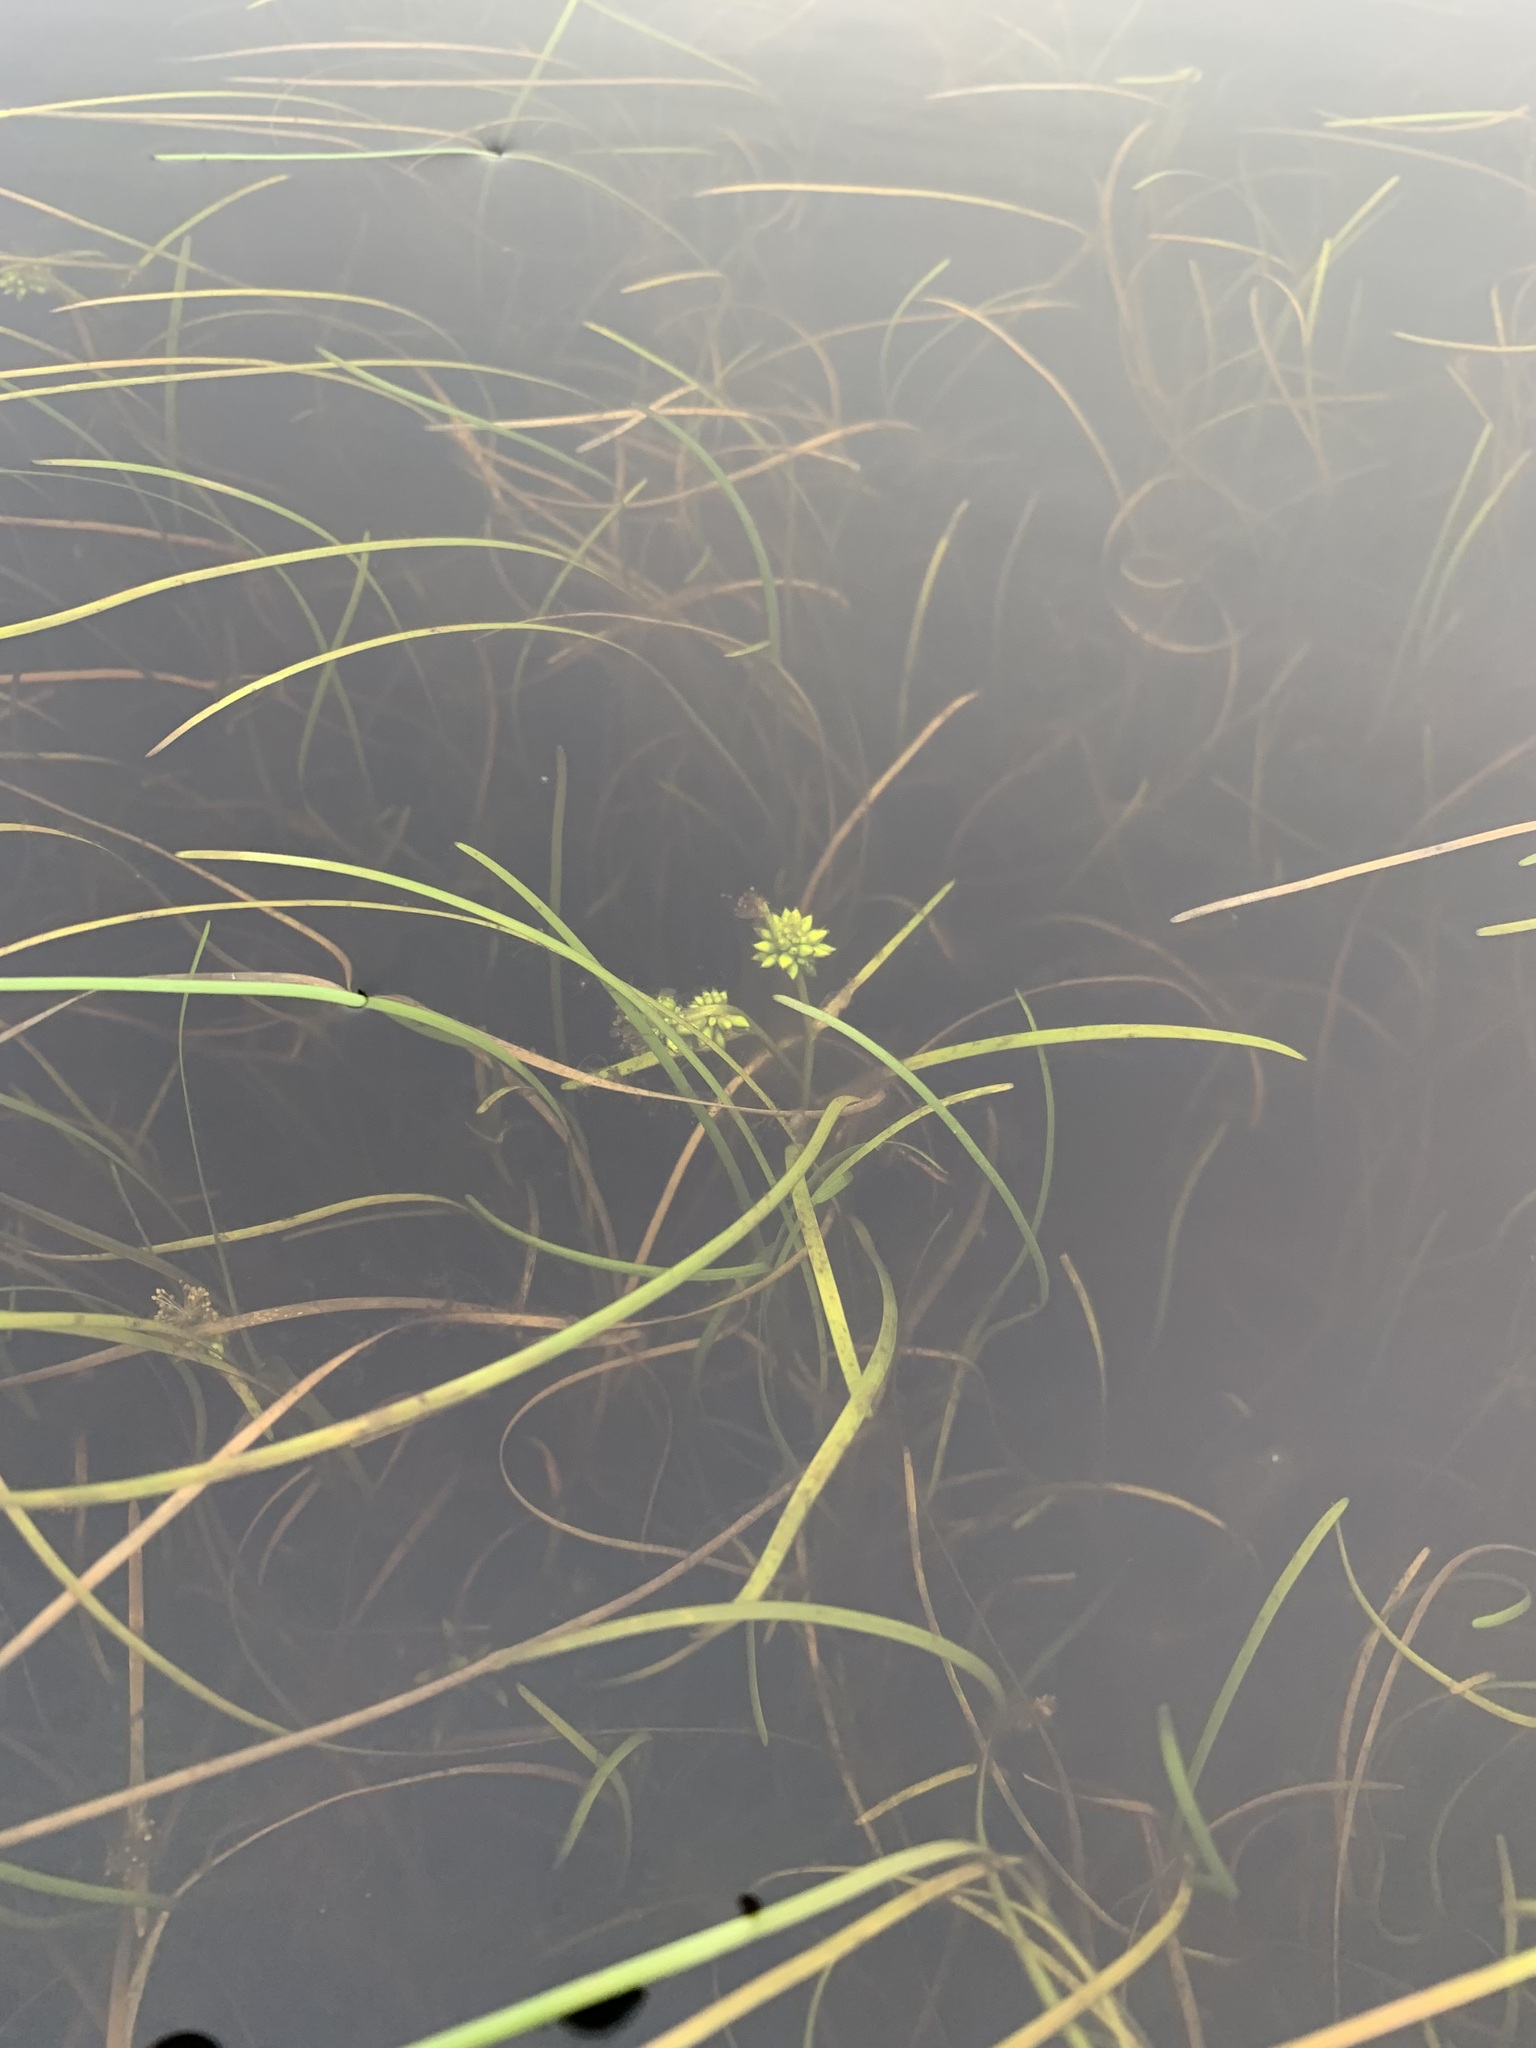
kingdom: Plantae
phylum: Tracheophyta
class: Liliopsida
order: Poales
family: Typhaceae
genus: Sparganium
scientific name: Sparganium hyperboreum
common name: Arctic burreed
